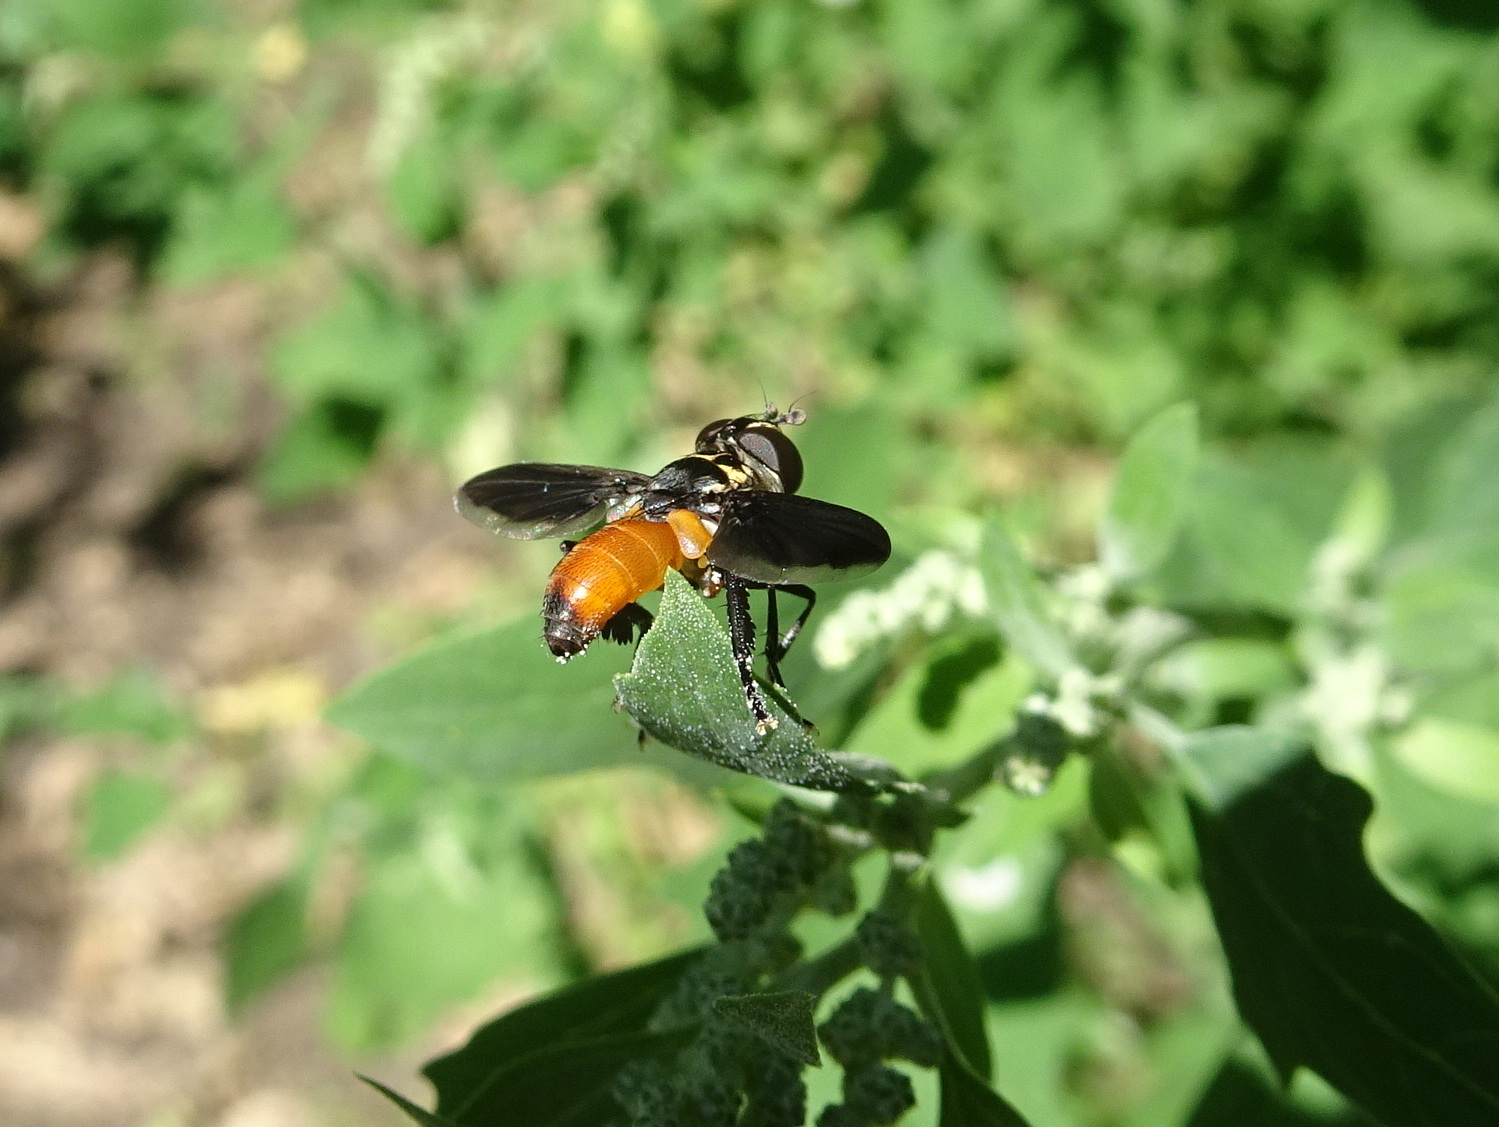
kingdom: Animalia
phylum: Arthropoda
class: Insecta
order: Diptera
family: Tachinidae
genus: Trichopoda
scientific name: Trichopoda pennipes
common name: Tachinid fly
